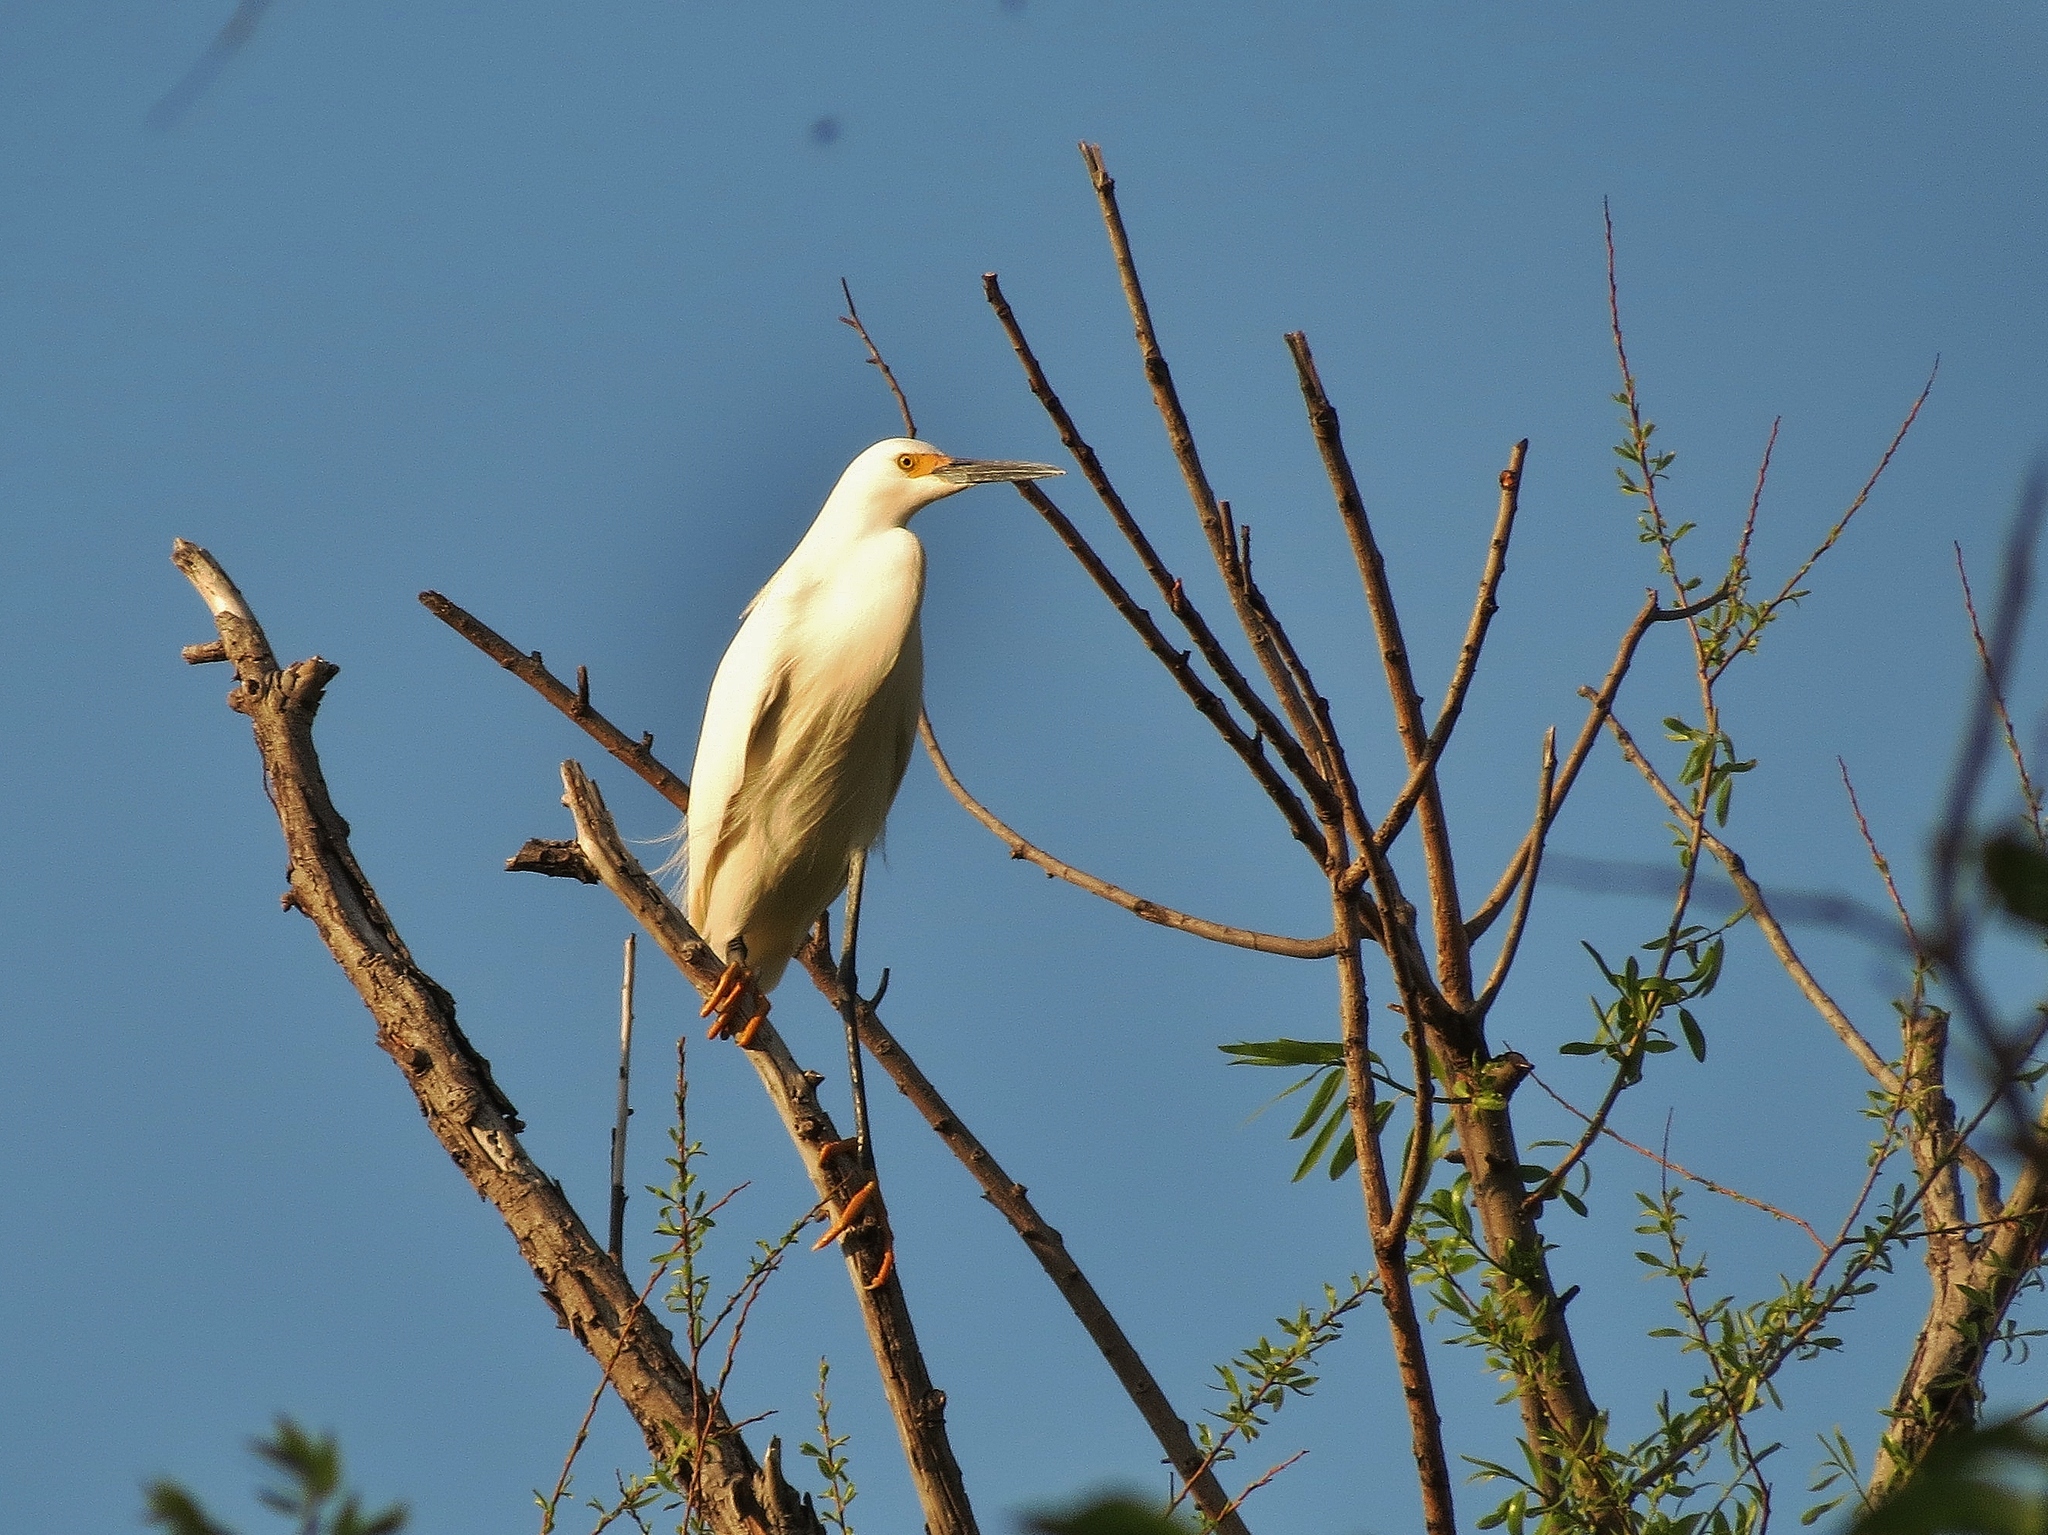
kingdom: Animalia
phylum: Chordata
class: Aves
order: Pelecaniformes
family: Ardeidae
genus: Egretta
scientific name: Egretta thula
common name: Snowy egret
